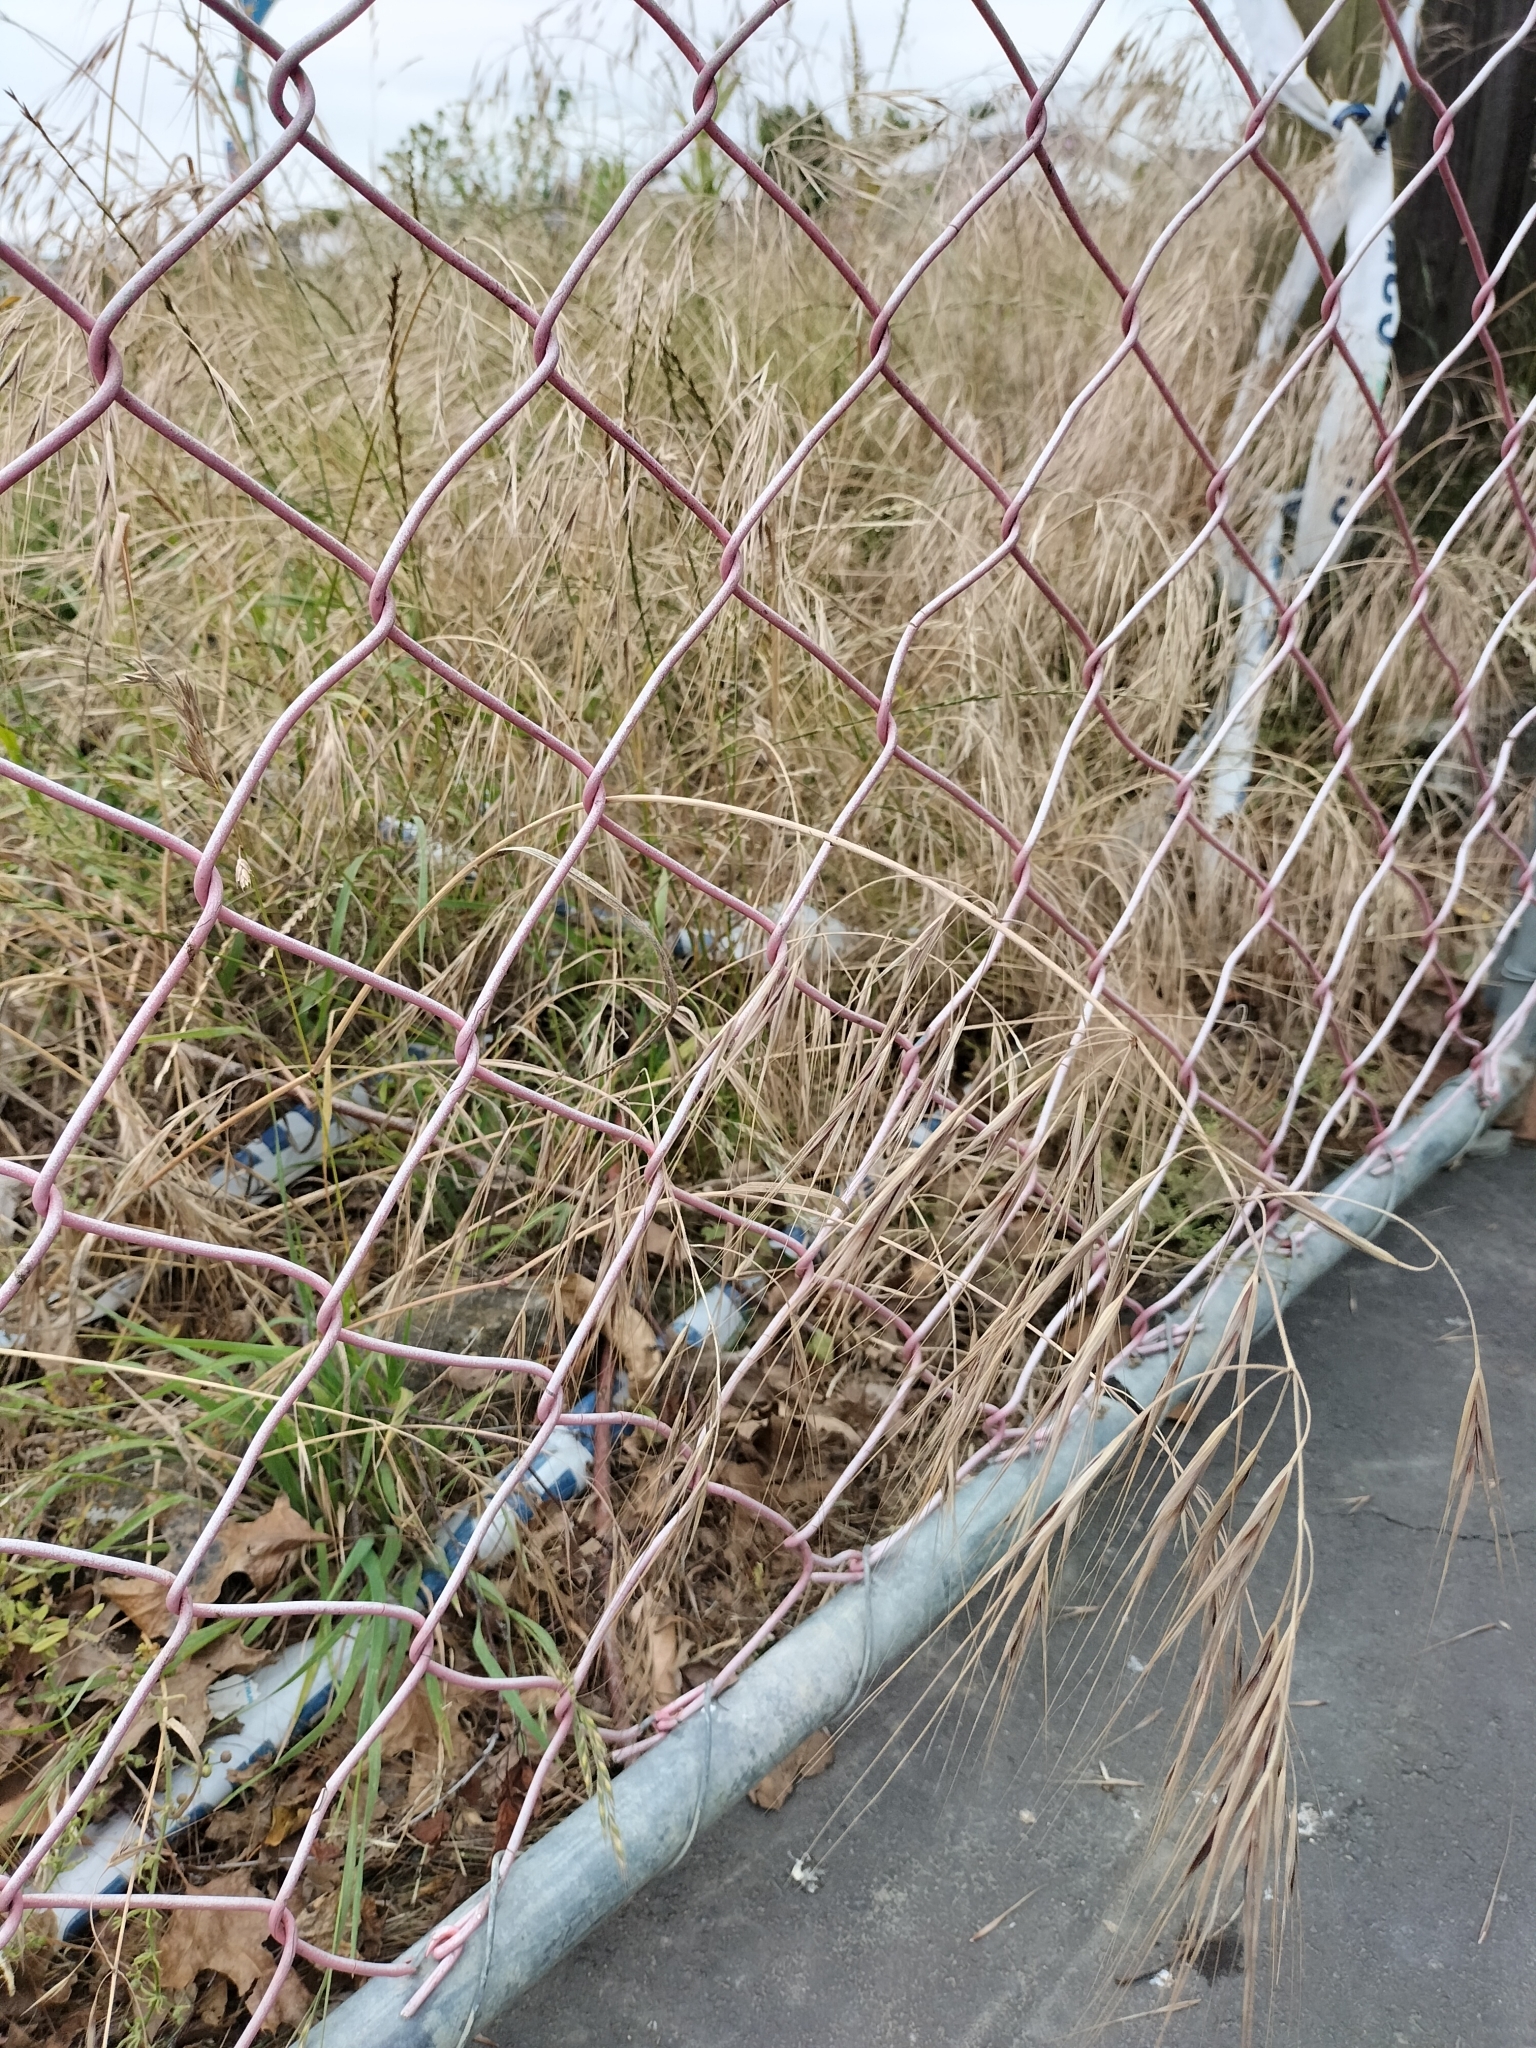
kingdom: Plantae
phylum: Tracheophyta
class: Liliopsida
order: Poales
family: Poaceae
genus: Bromus
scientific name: Bromus diandrus
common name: Ripgut brome
